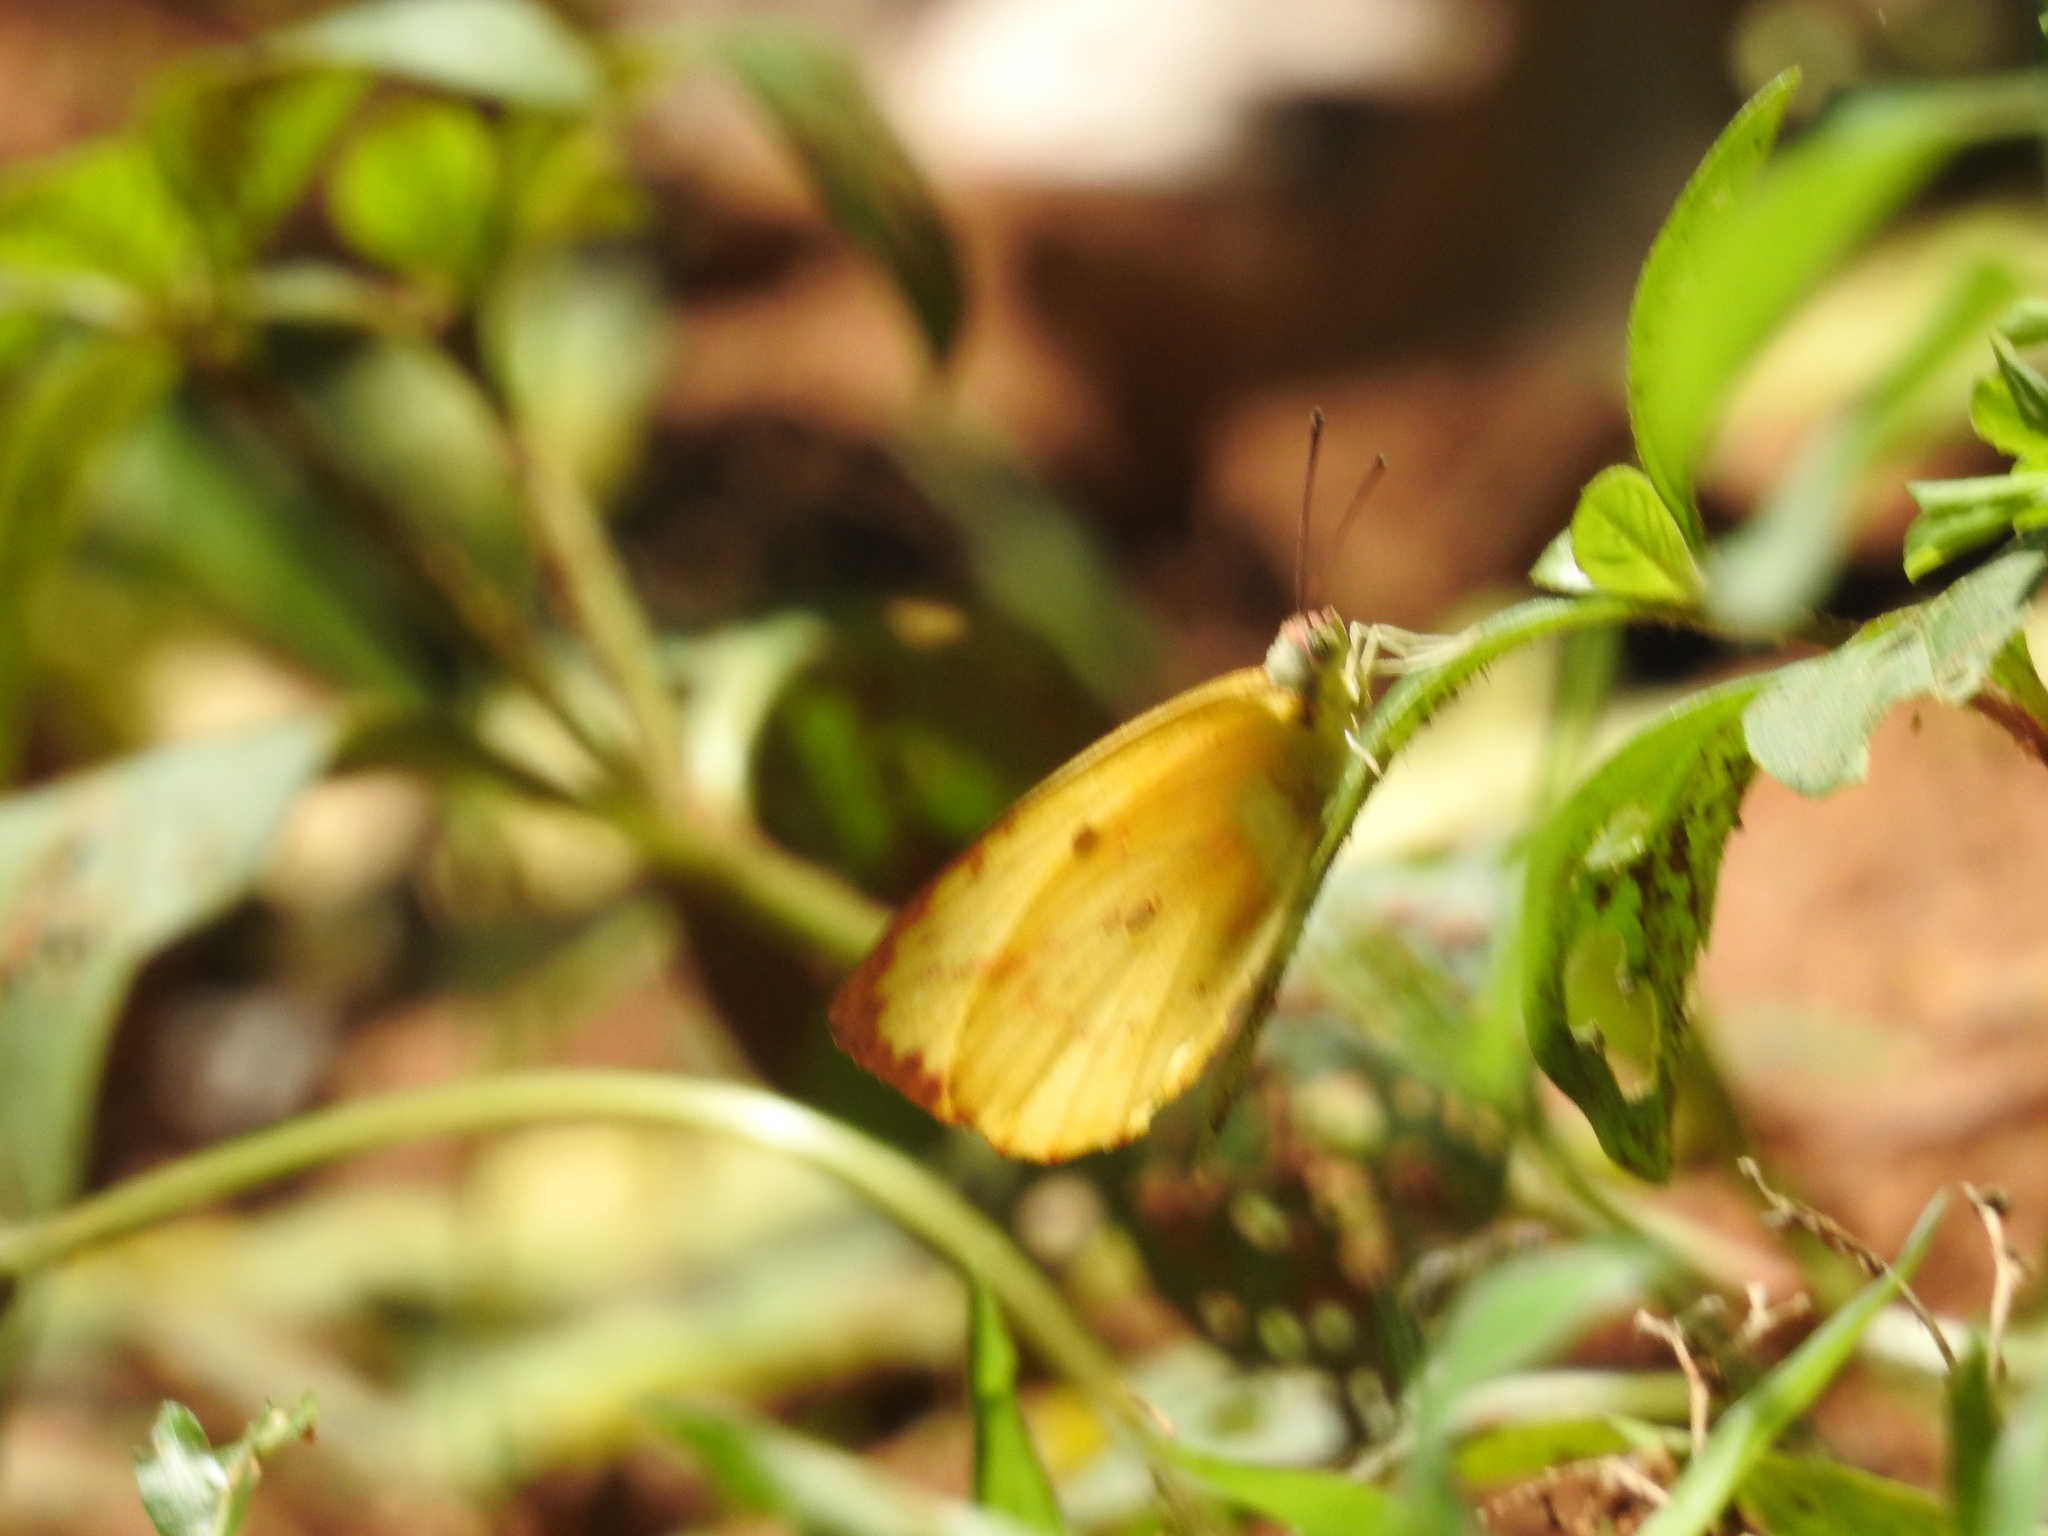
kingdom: Animalia
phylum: Arthropoda
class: Insecta
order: Lepidoptera
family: Pieridae
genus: Catopsilia
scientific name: Catopsilia pomona
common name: Common emigrant
